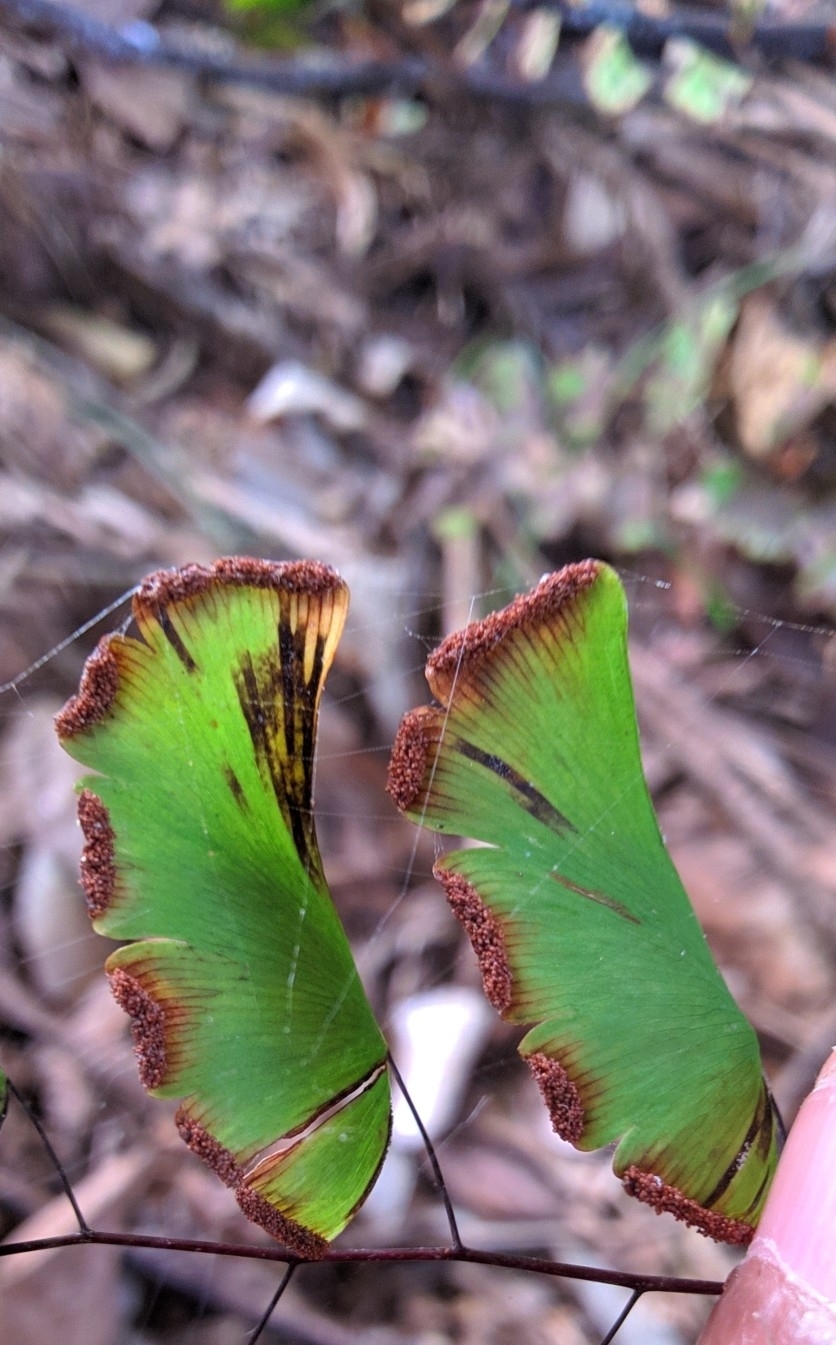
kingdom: Plantae
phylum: Tracheophyta
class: Polypodiopsida
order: Polypodiales
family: Pteridaceae
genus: Adiantum
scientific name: Adiantum philippense
